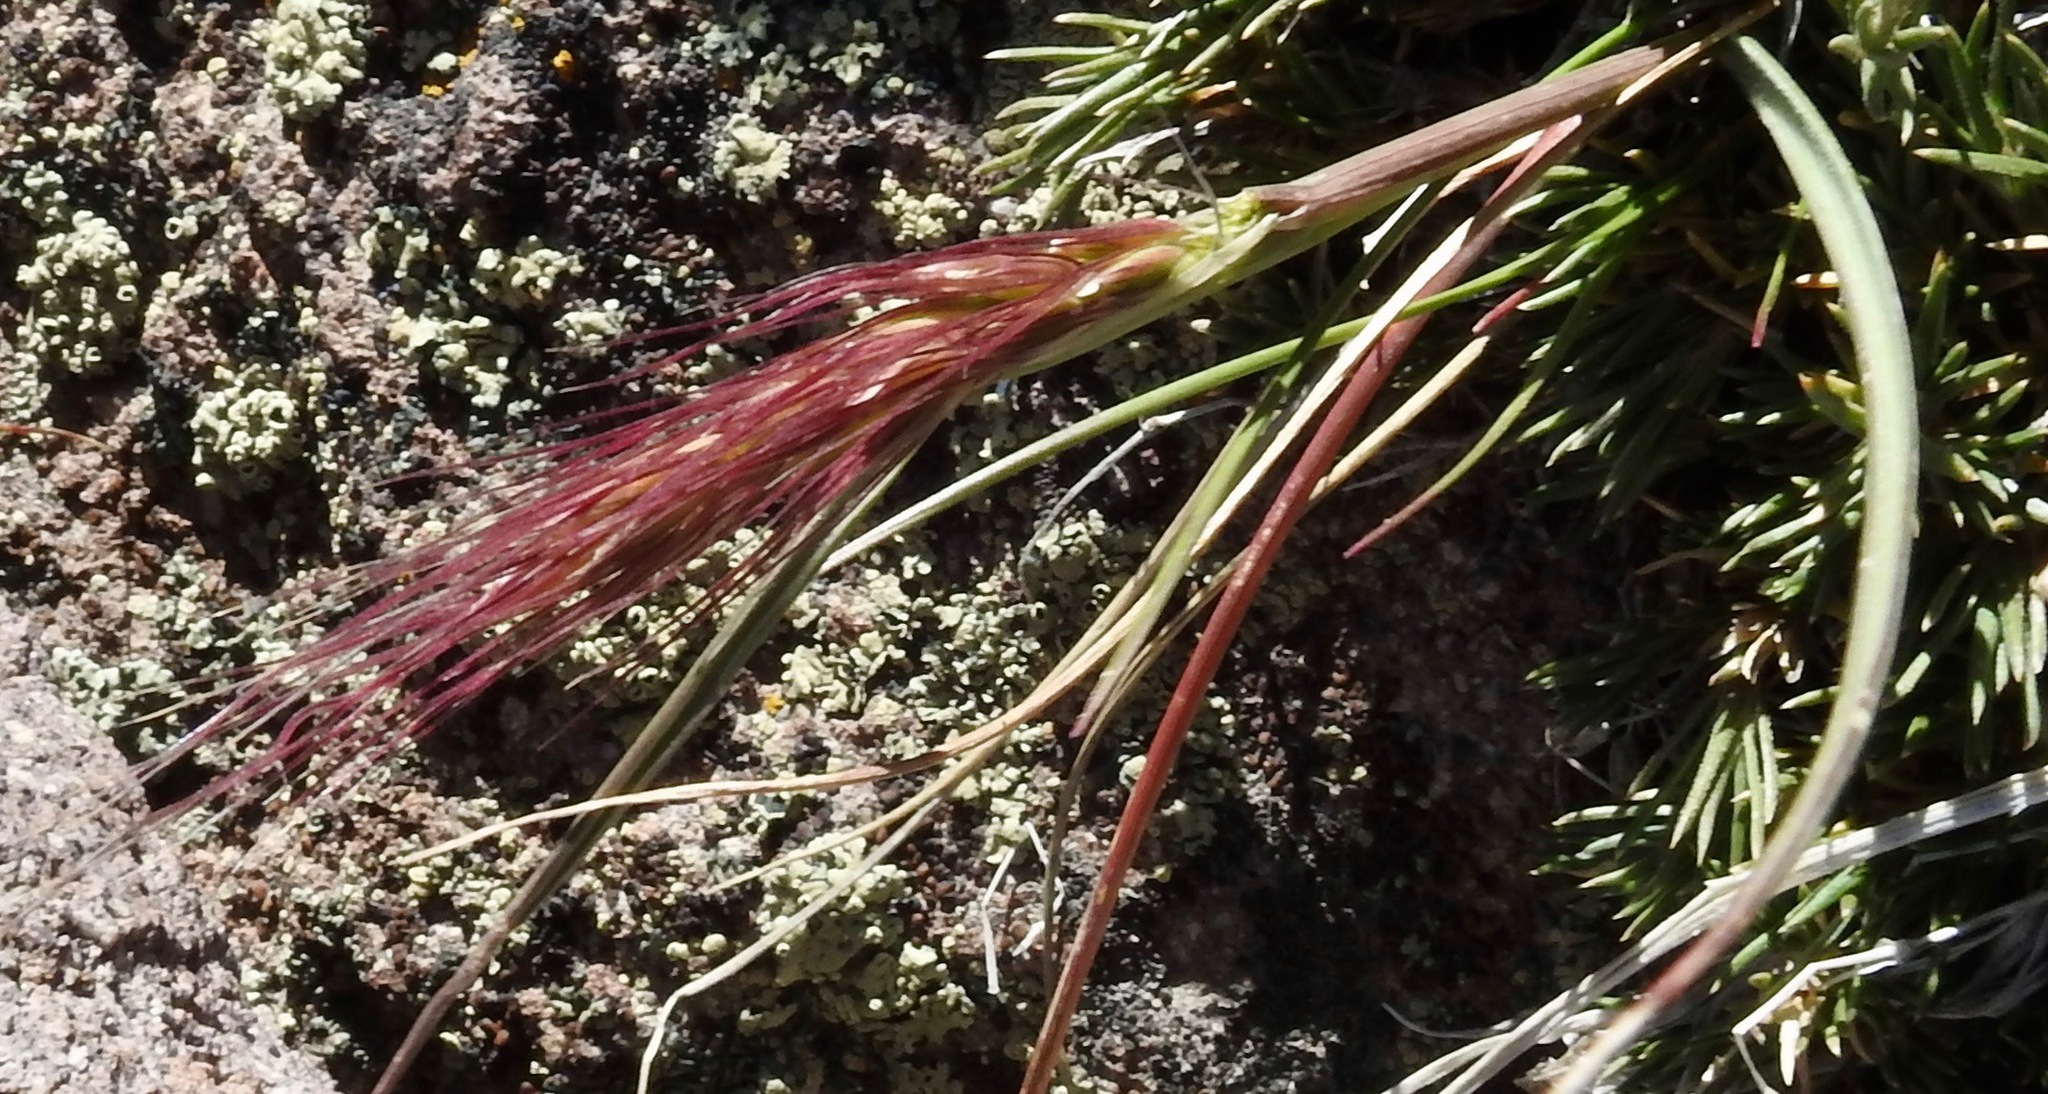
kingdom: Plantae
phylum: Tracheophyta
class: Liliopsida
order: Poales
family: Poaceae
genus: Elymus
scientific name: Elymus elymoides
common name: Bottlebrush squirreltail
